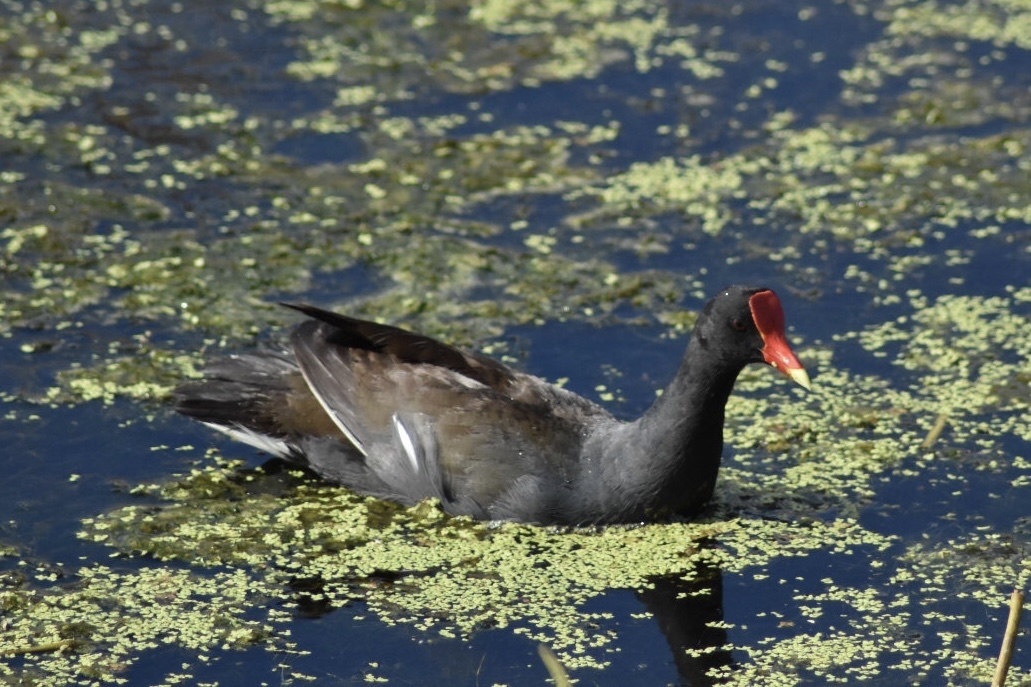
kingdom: Animalia
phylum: Chordata
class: Aves
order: Gruiformes
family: Rallidae
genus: Gallinula
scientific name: Gallinula chloropus
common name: Common moorhen
